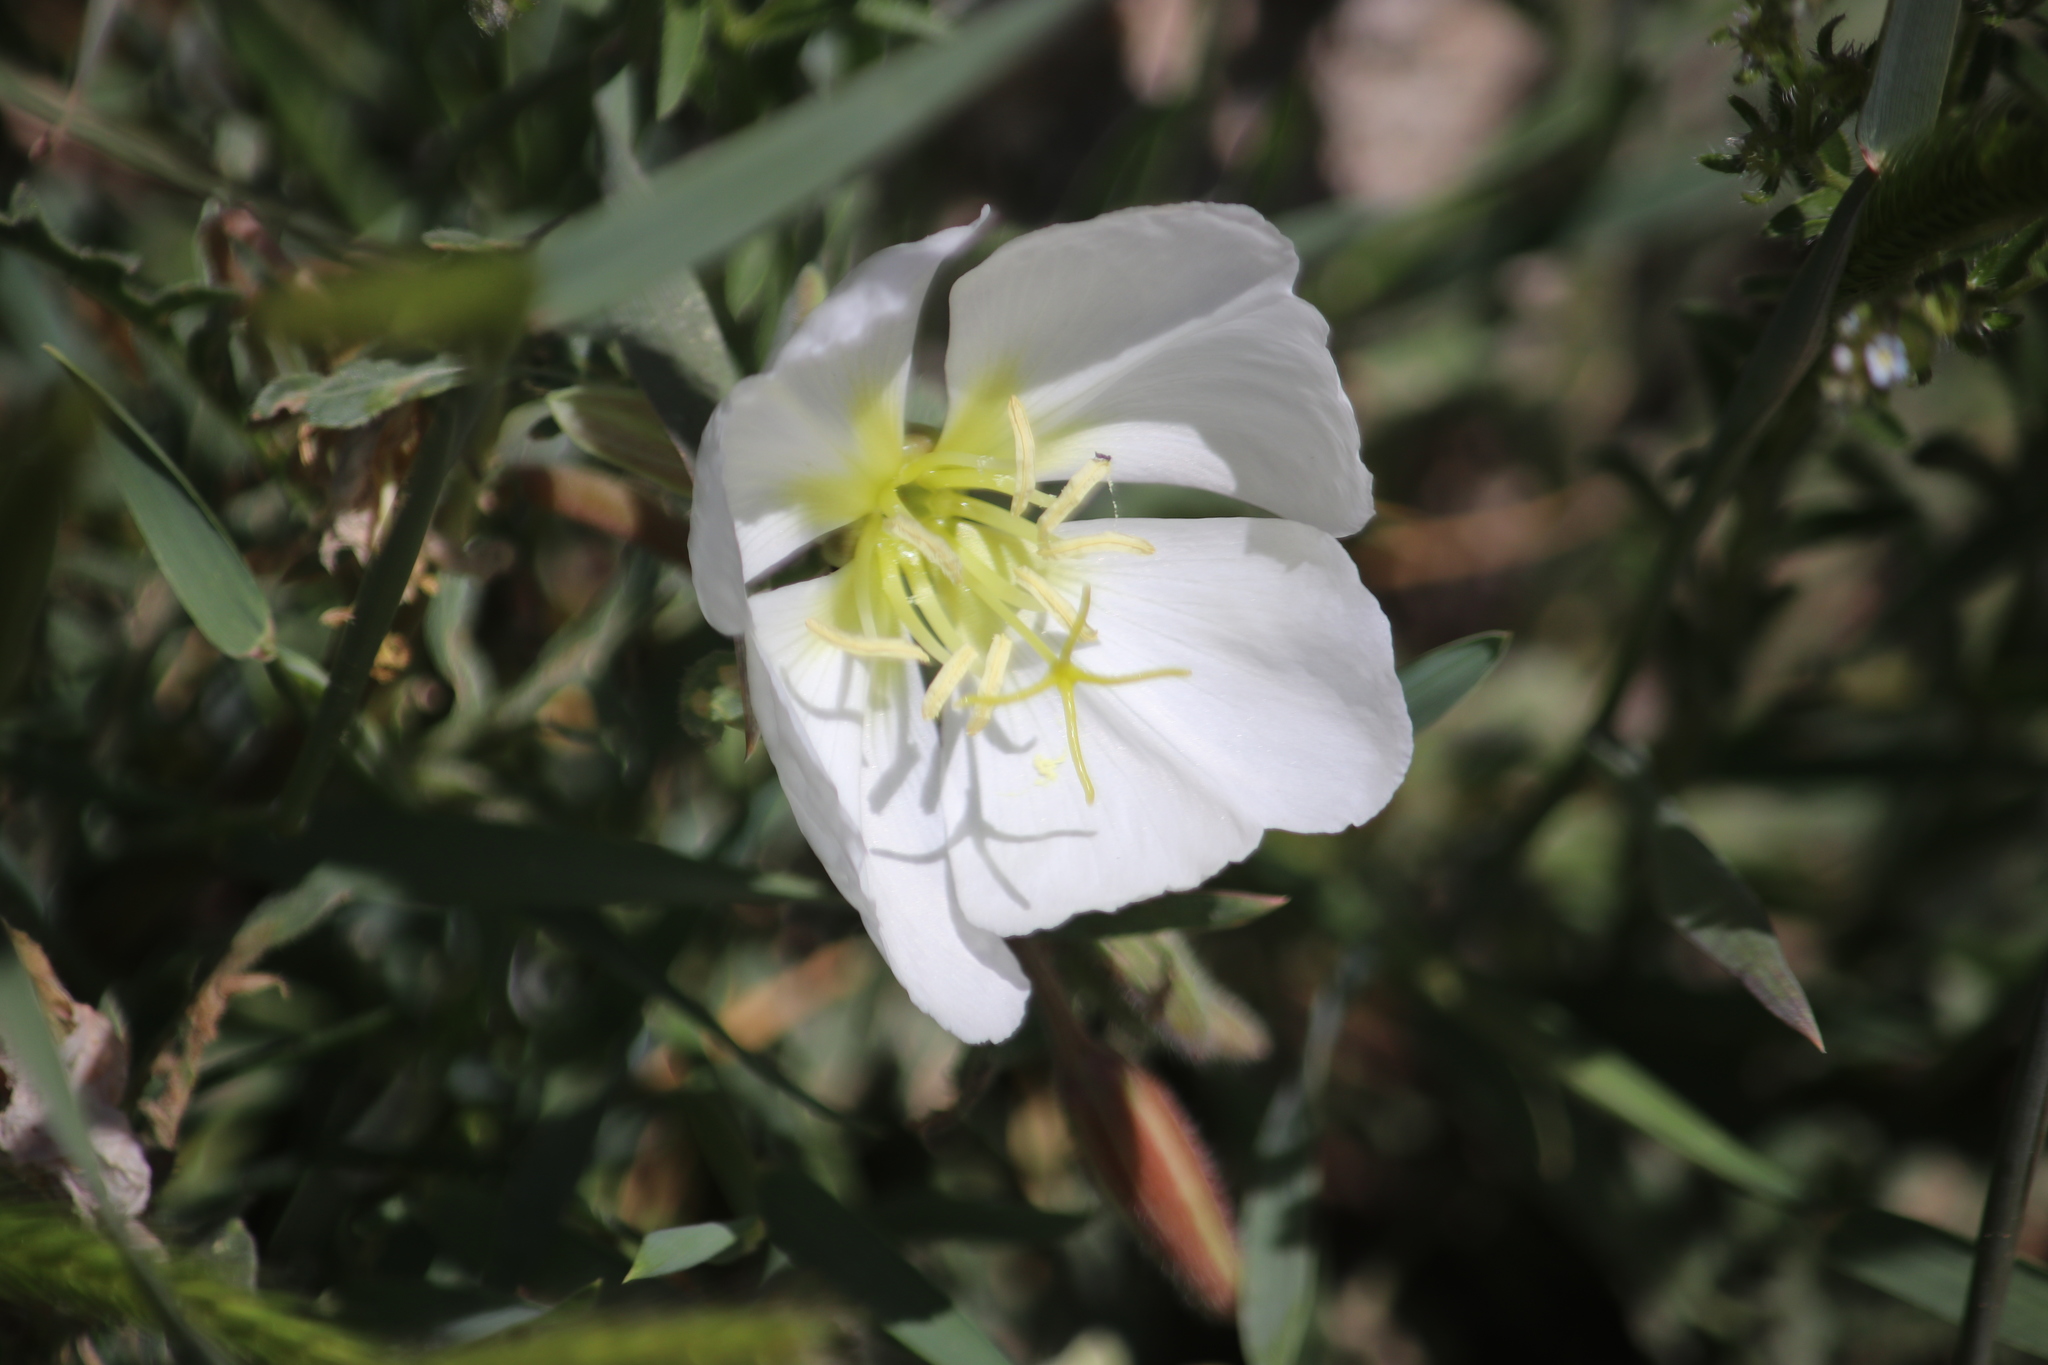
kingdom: Plantae
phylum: Tracheophyta
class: Magnoliopsida
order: Myrtales
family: Onagraceae
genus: Oenothera
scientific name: Oenothera albicaulis
